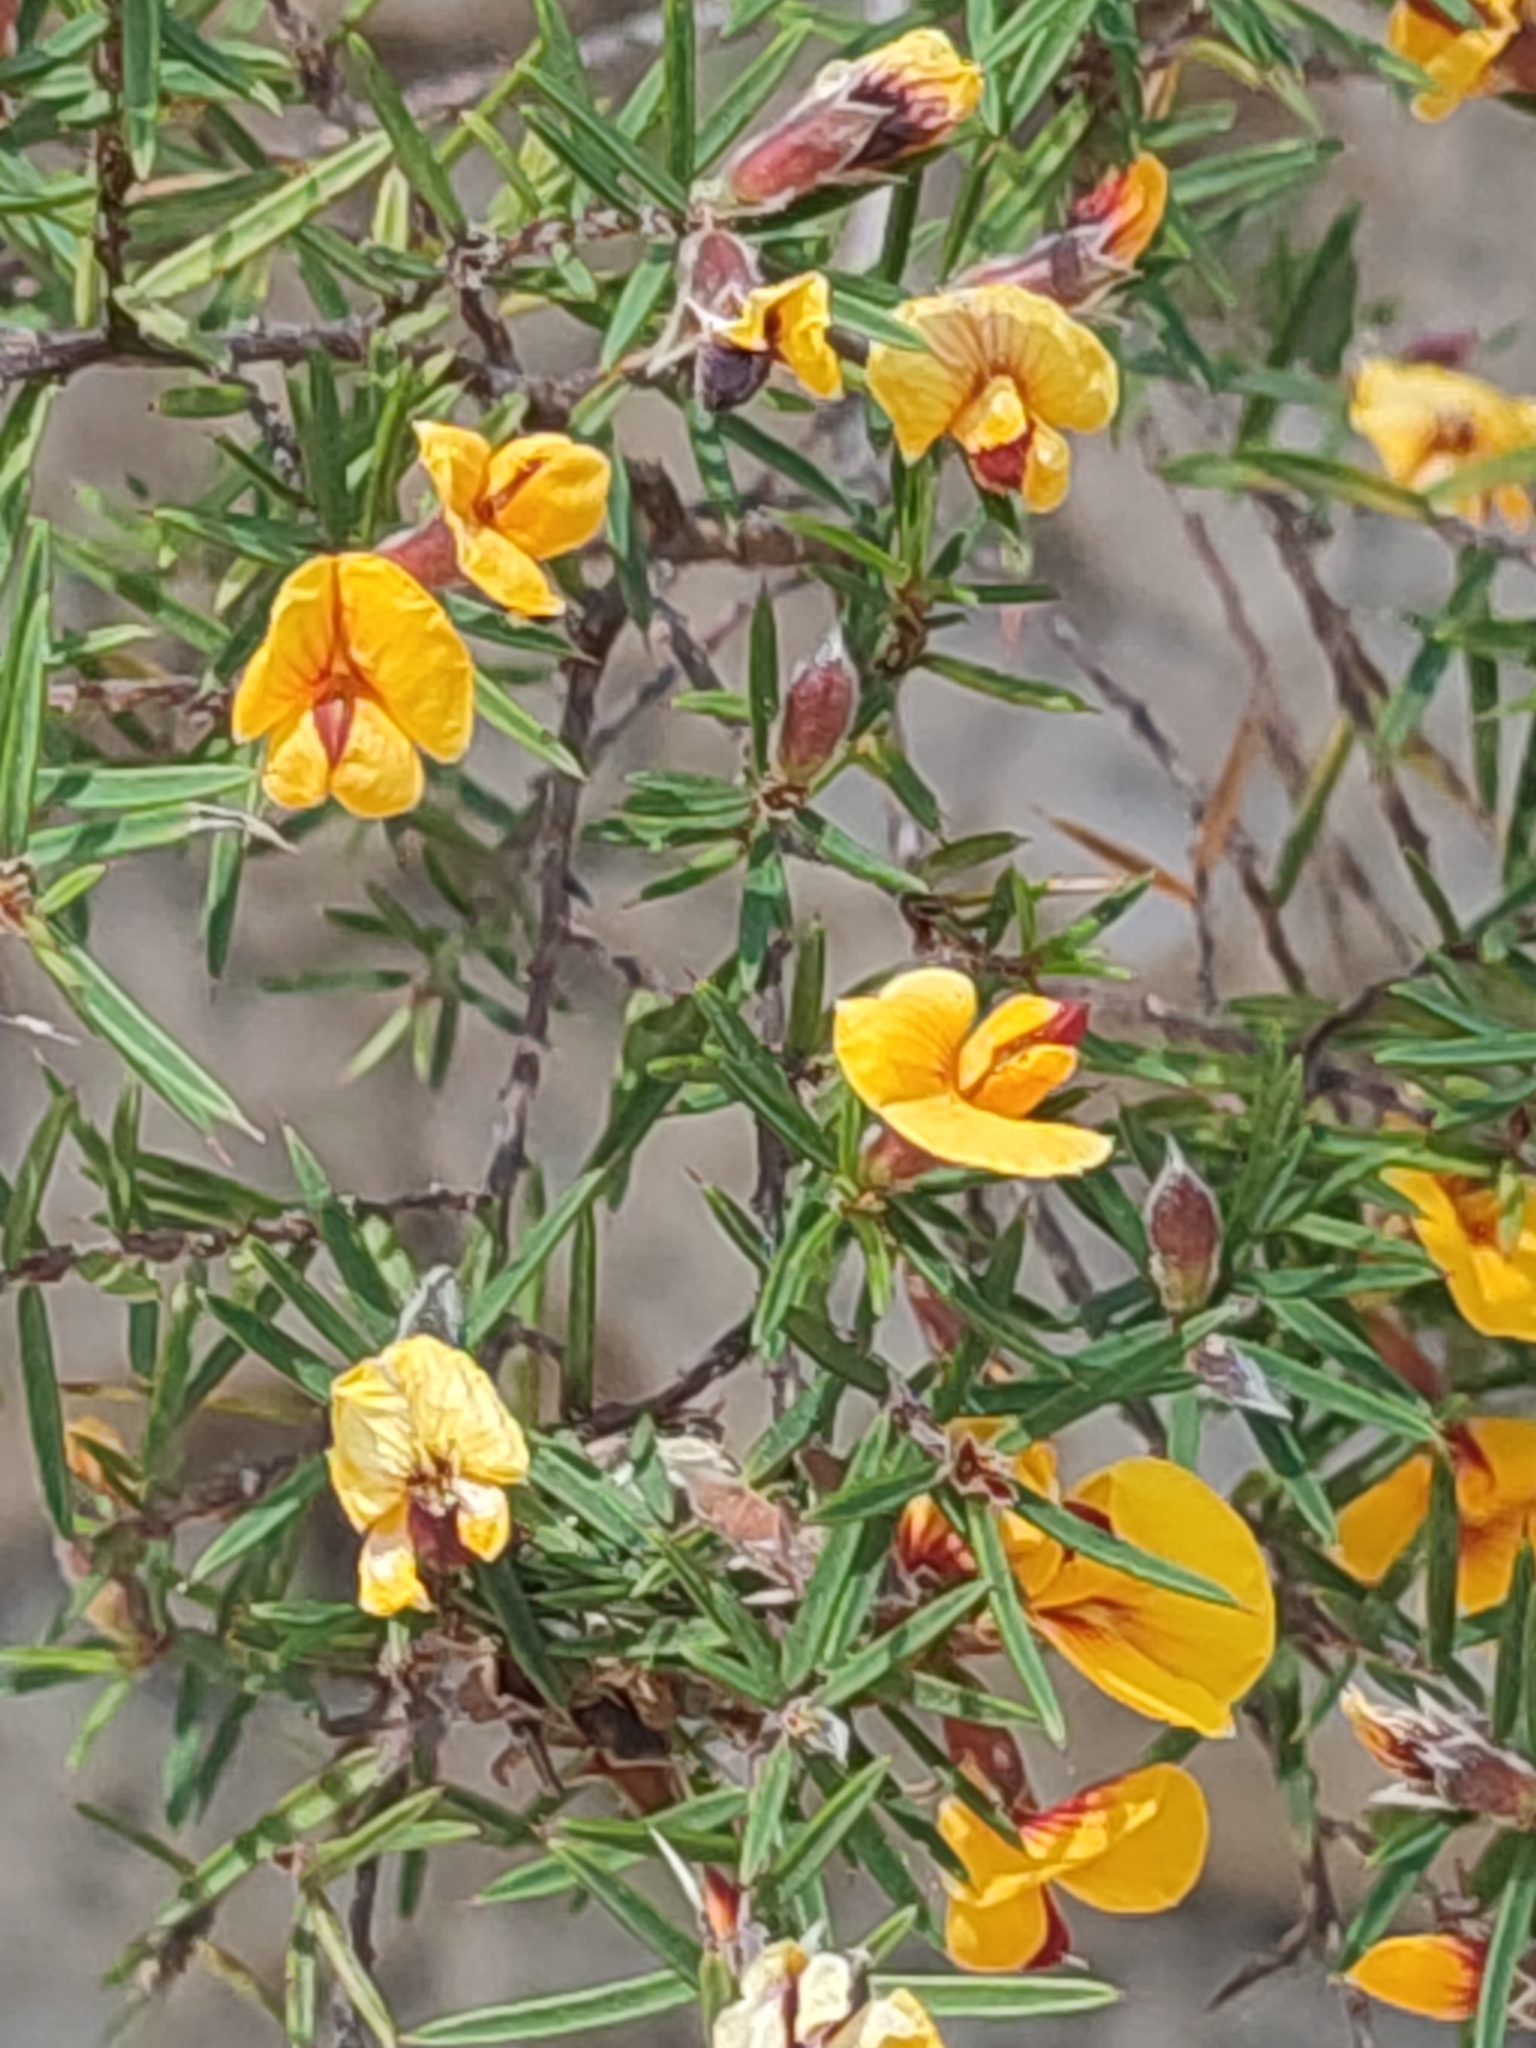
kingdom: Plantae
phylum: Tracheophyta
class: Magnoliopsida
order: Fabales
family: Fabaceae
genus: Pultenaea
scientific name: Pultenaea juniperina
